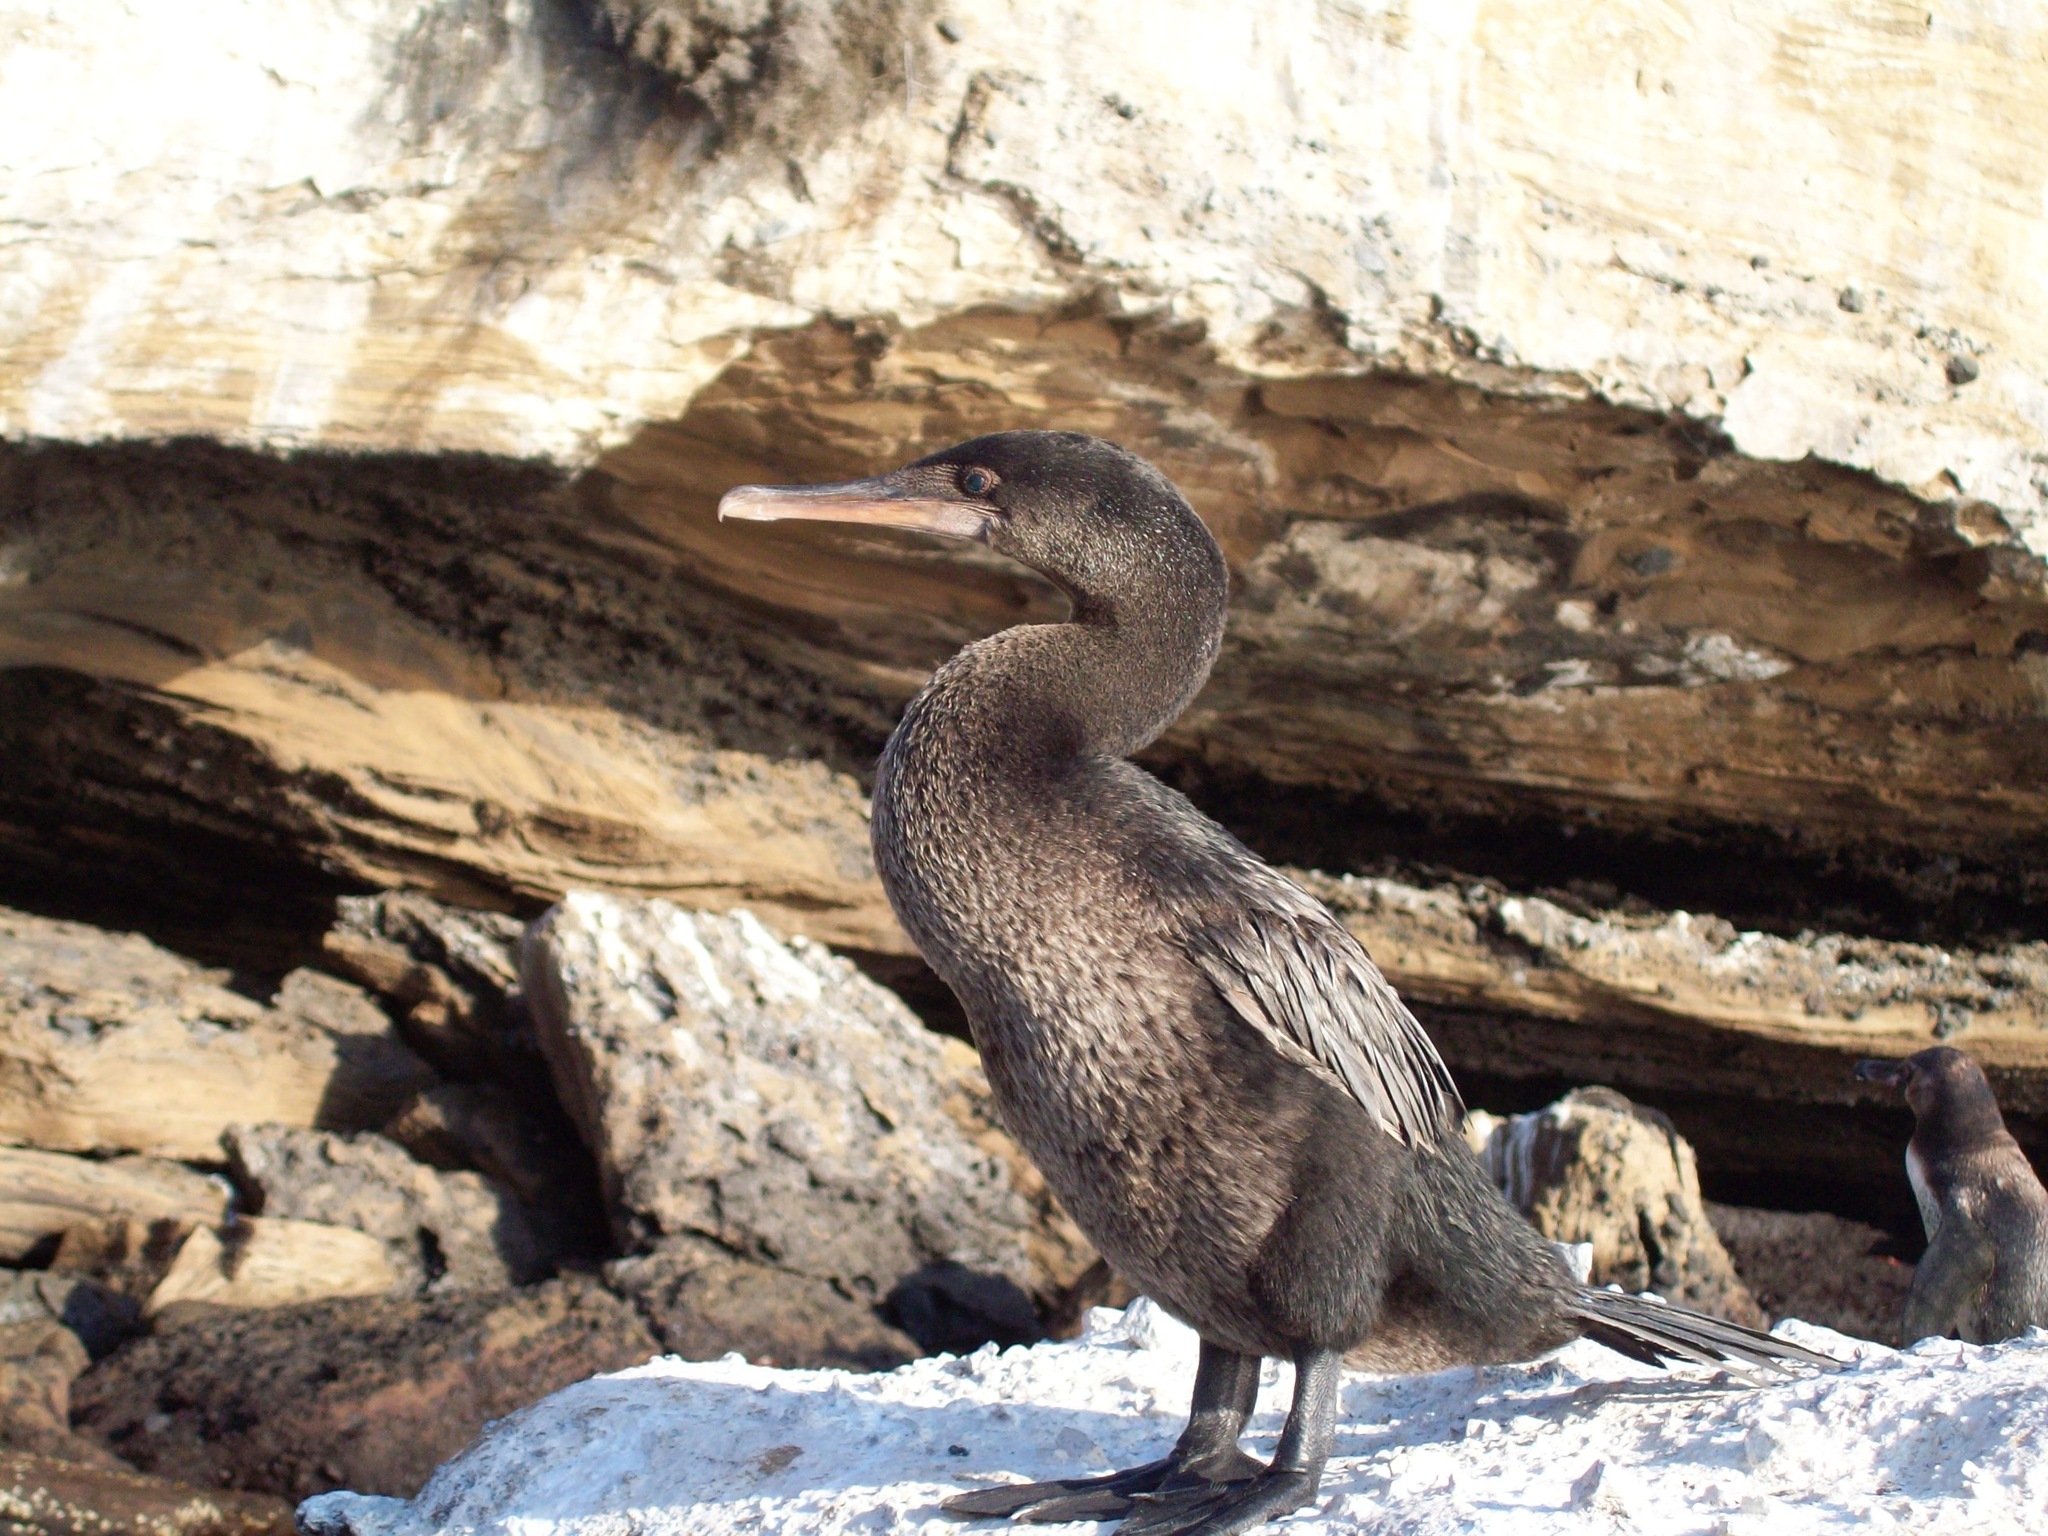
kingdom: Animalia
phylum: Chordata
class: Aves
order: Suliformes
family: Phalacrocoracidae
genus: Phalacrocorax
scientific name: Phalacrocorax harrisi
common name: Flightless cormorant
